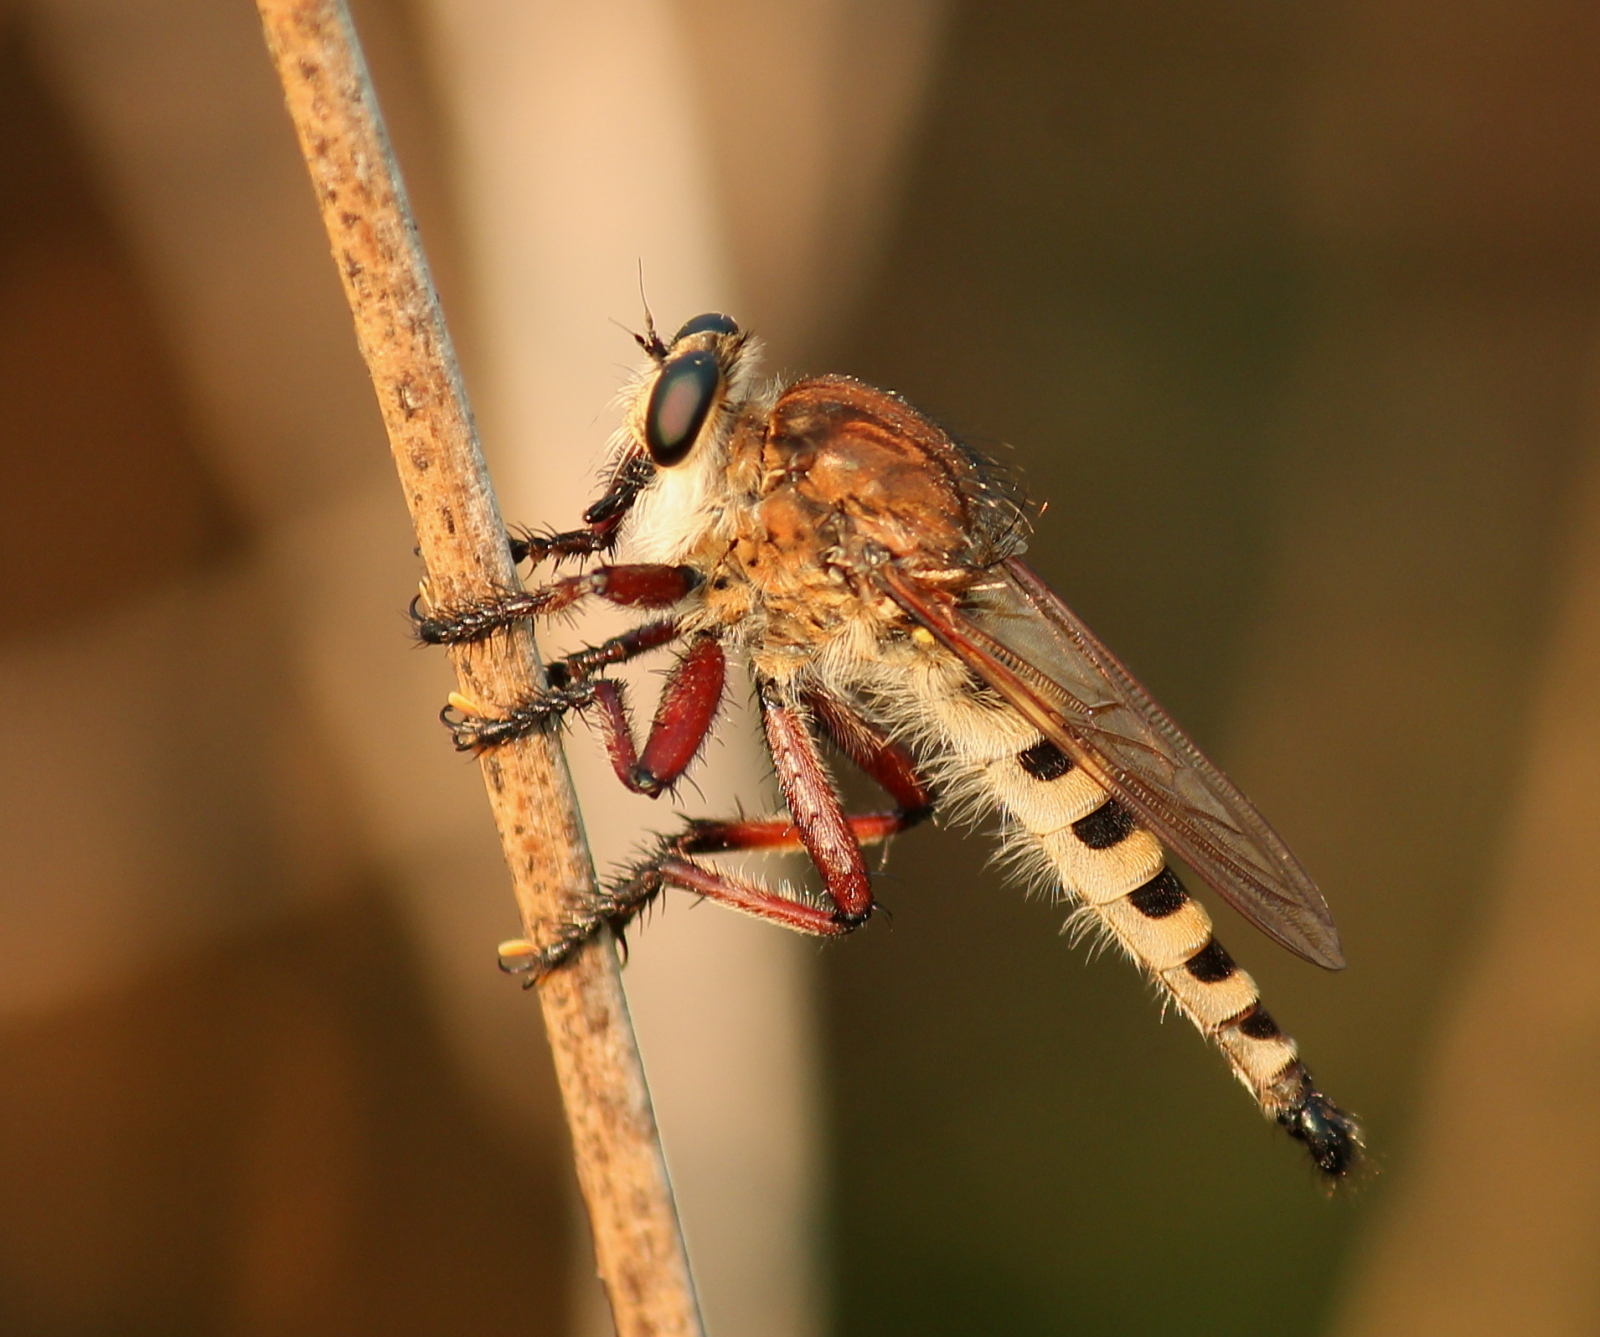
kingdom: Animalia
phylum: Arthropoda
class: Insecta
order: Diptera
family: Asilidae
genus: Promachus
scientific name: Promachus hinei
